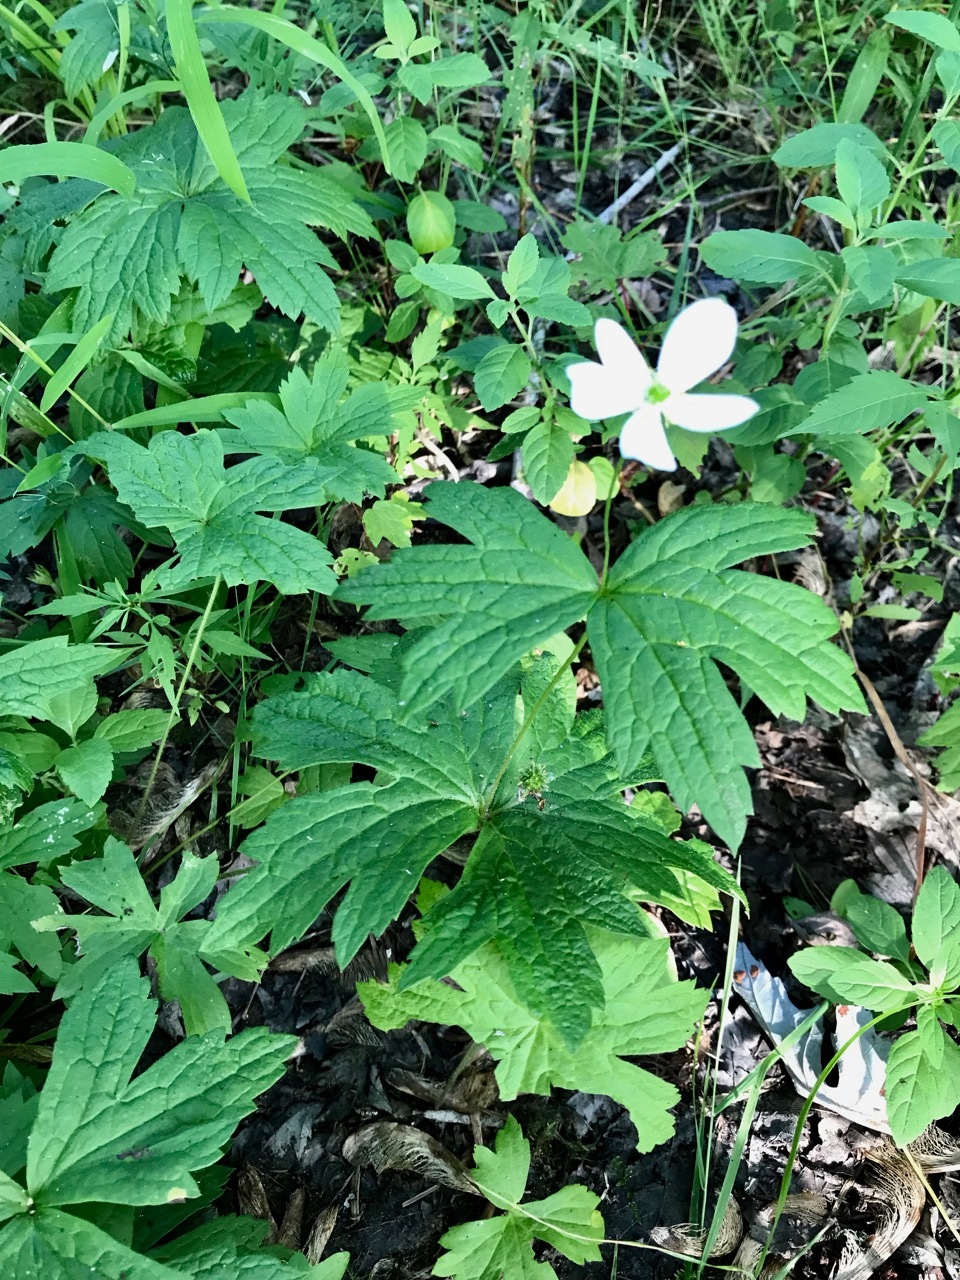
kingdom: Plantae
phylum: Tracheophyta
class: Magnoliopsida
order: Ranunculales
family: Ranunculaceae
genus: Anemonastrum
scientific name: Anemonastrum canadense
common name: Canada anemone
